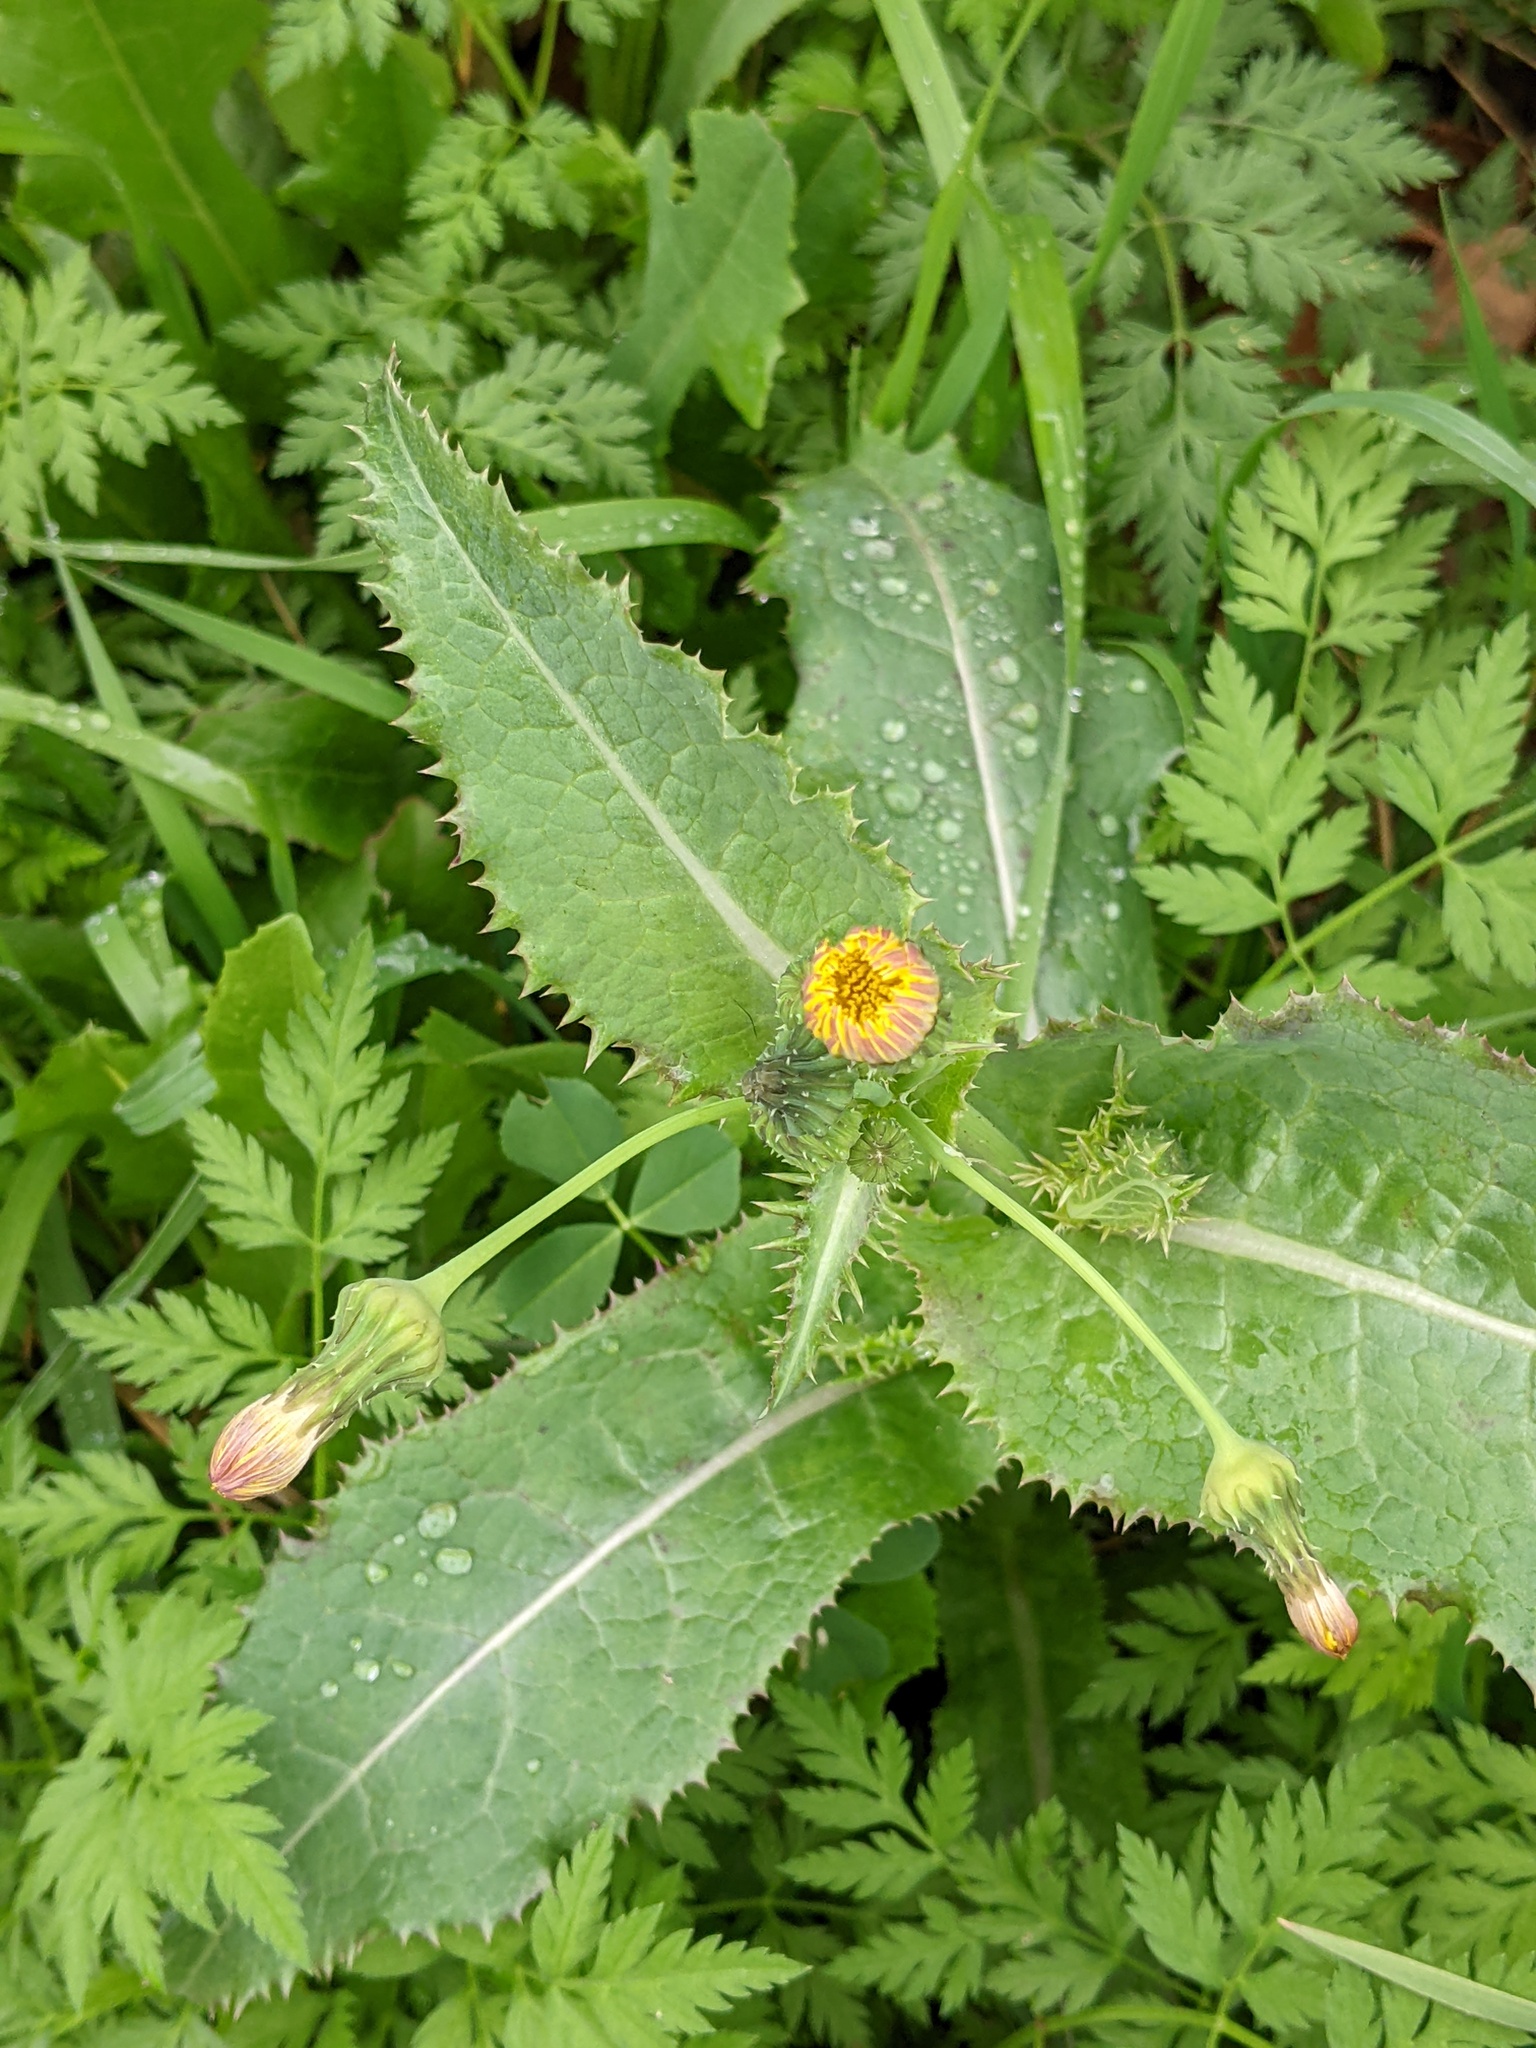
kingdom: Plantae
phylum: Tracheophyta
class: Magnoliopsida
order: Asterales
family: Asteraceae
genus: Sonchus
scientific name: Sonchus asper
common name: Prickly sow-thistle
